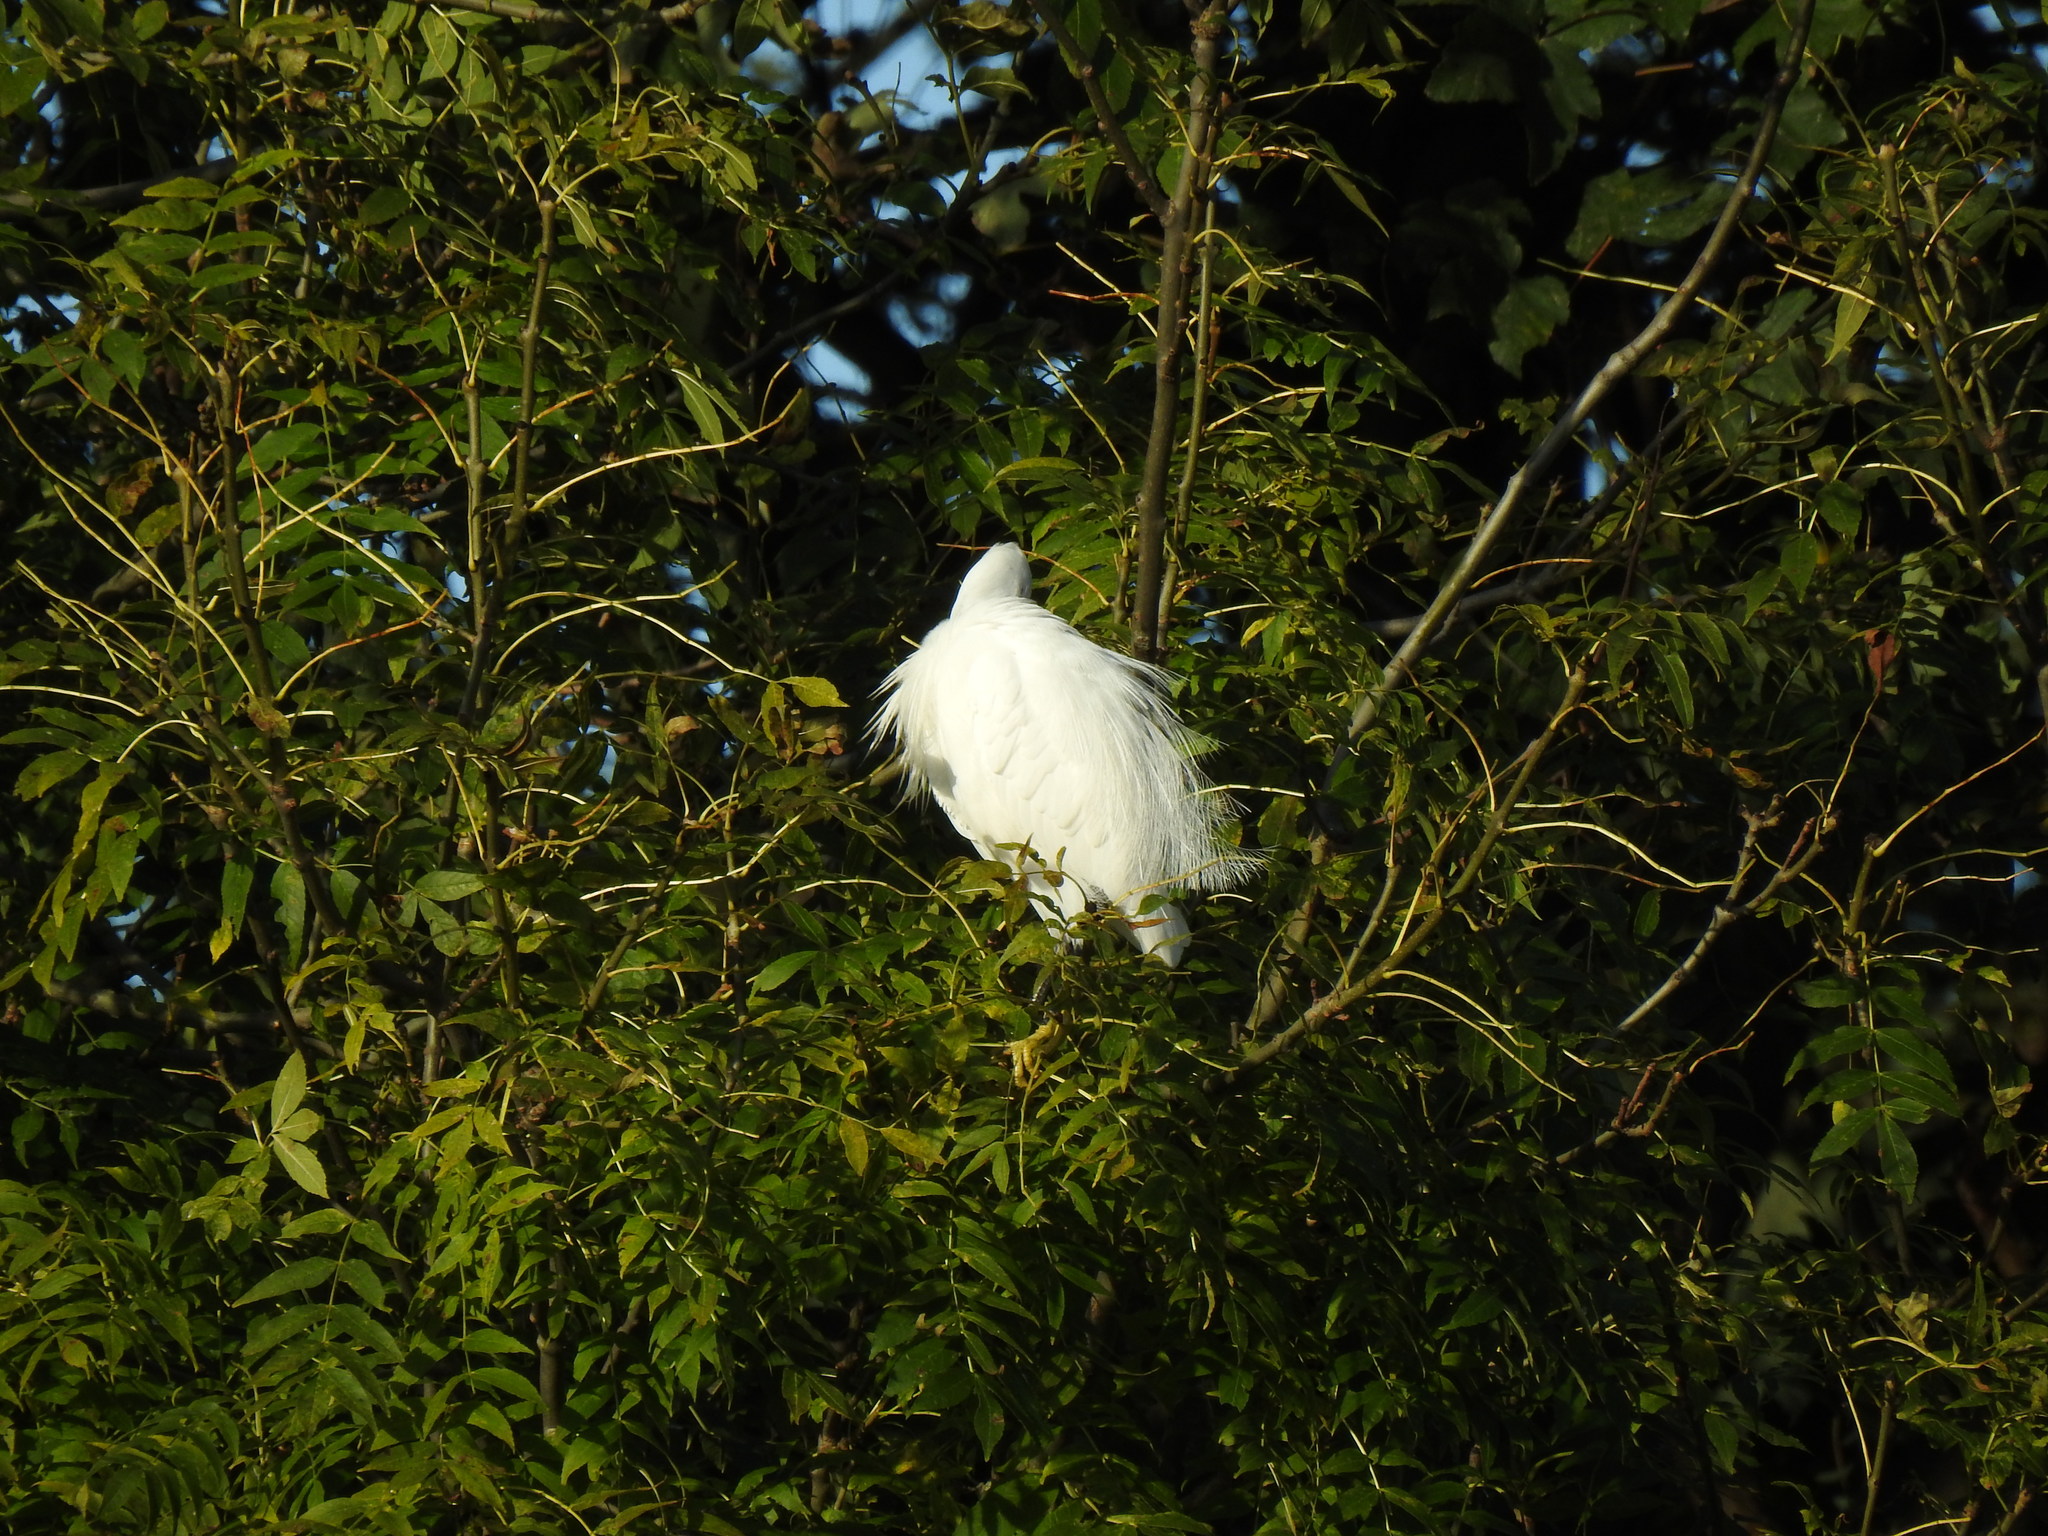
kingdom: Animalia
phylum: Chordata
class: Aves
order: Pelecaniformes
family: Ardeidae
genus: Egretta
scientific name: Egretta garzetta
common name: Little egret
